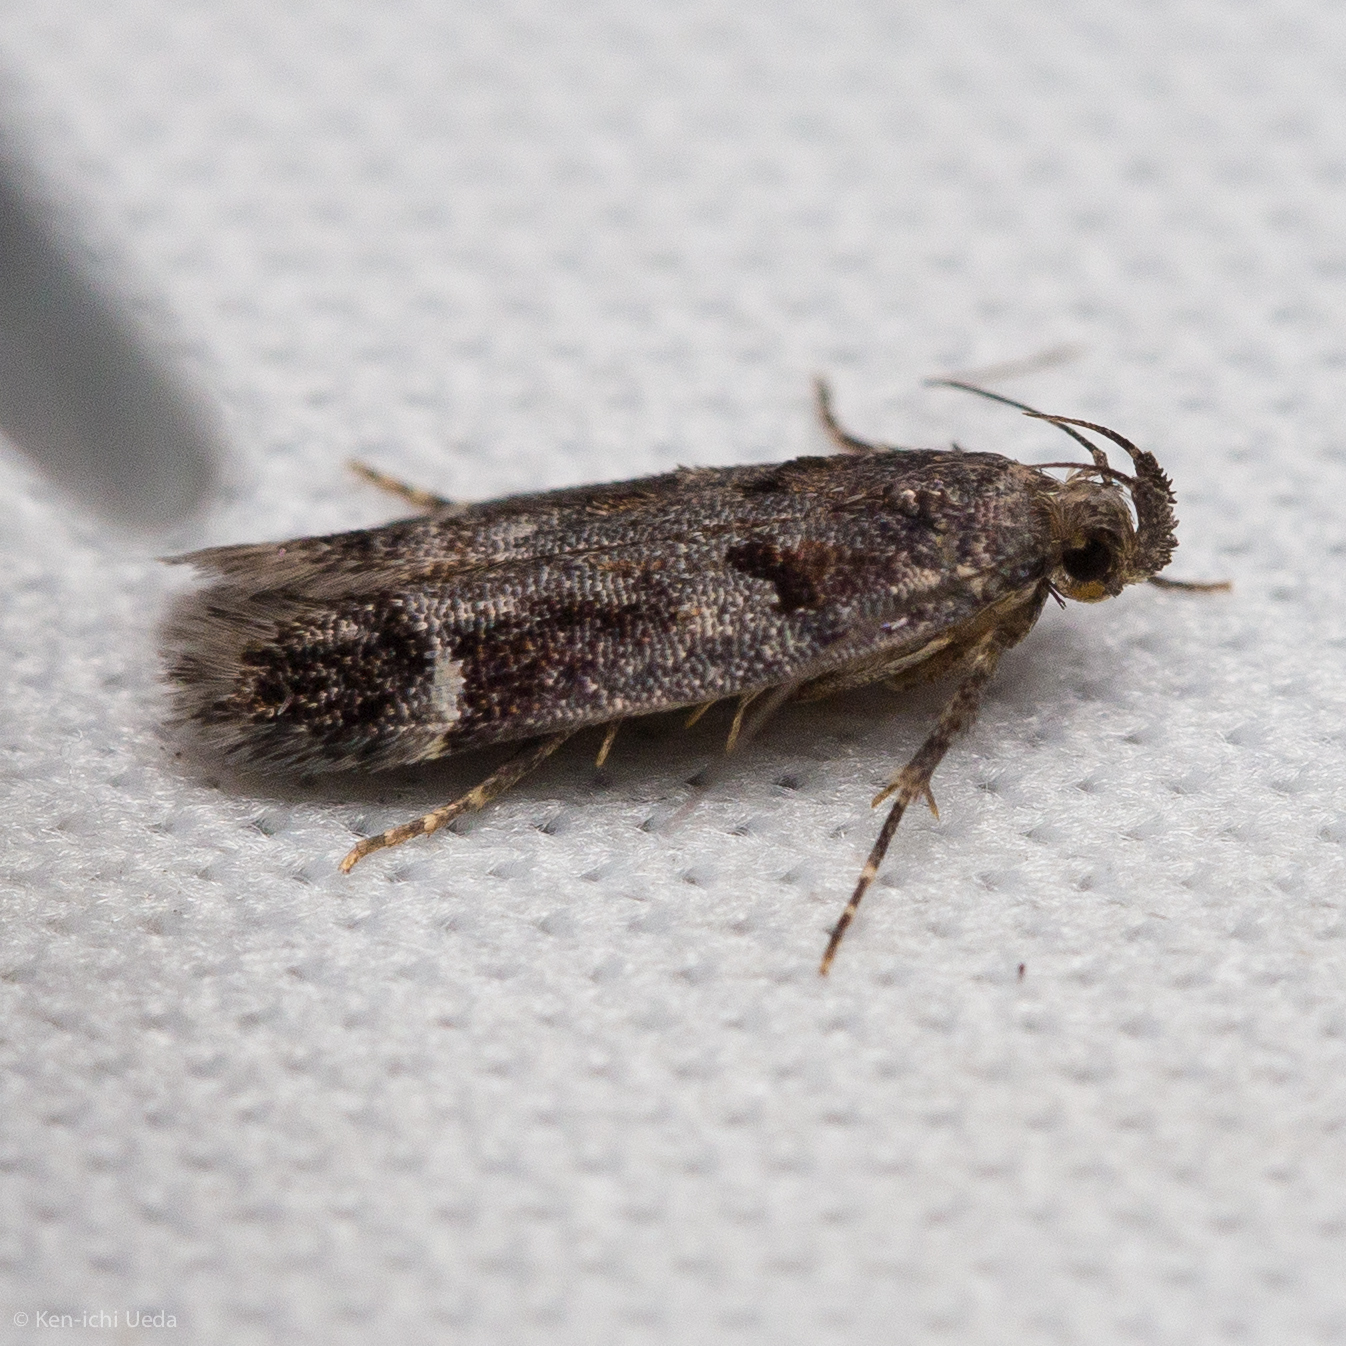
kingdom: Animalia
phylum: Arthropoda
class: Insecta
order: Lepidoptera
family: Gelechiidae
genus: Pseudochelaria
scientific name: Pseudochelaria manzanitae
